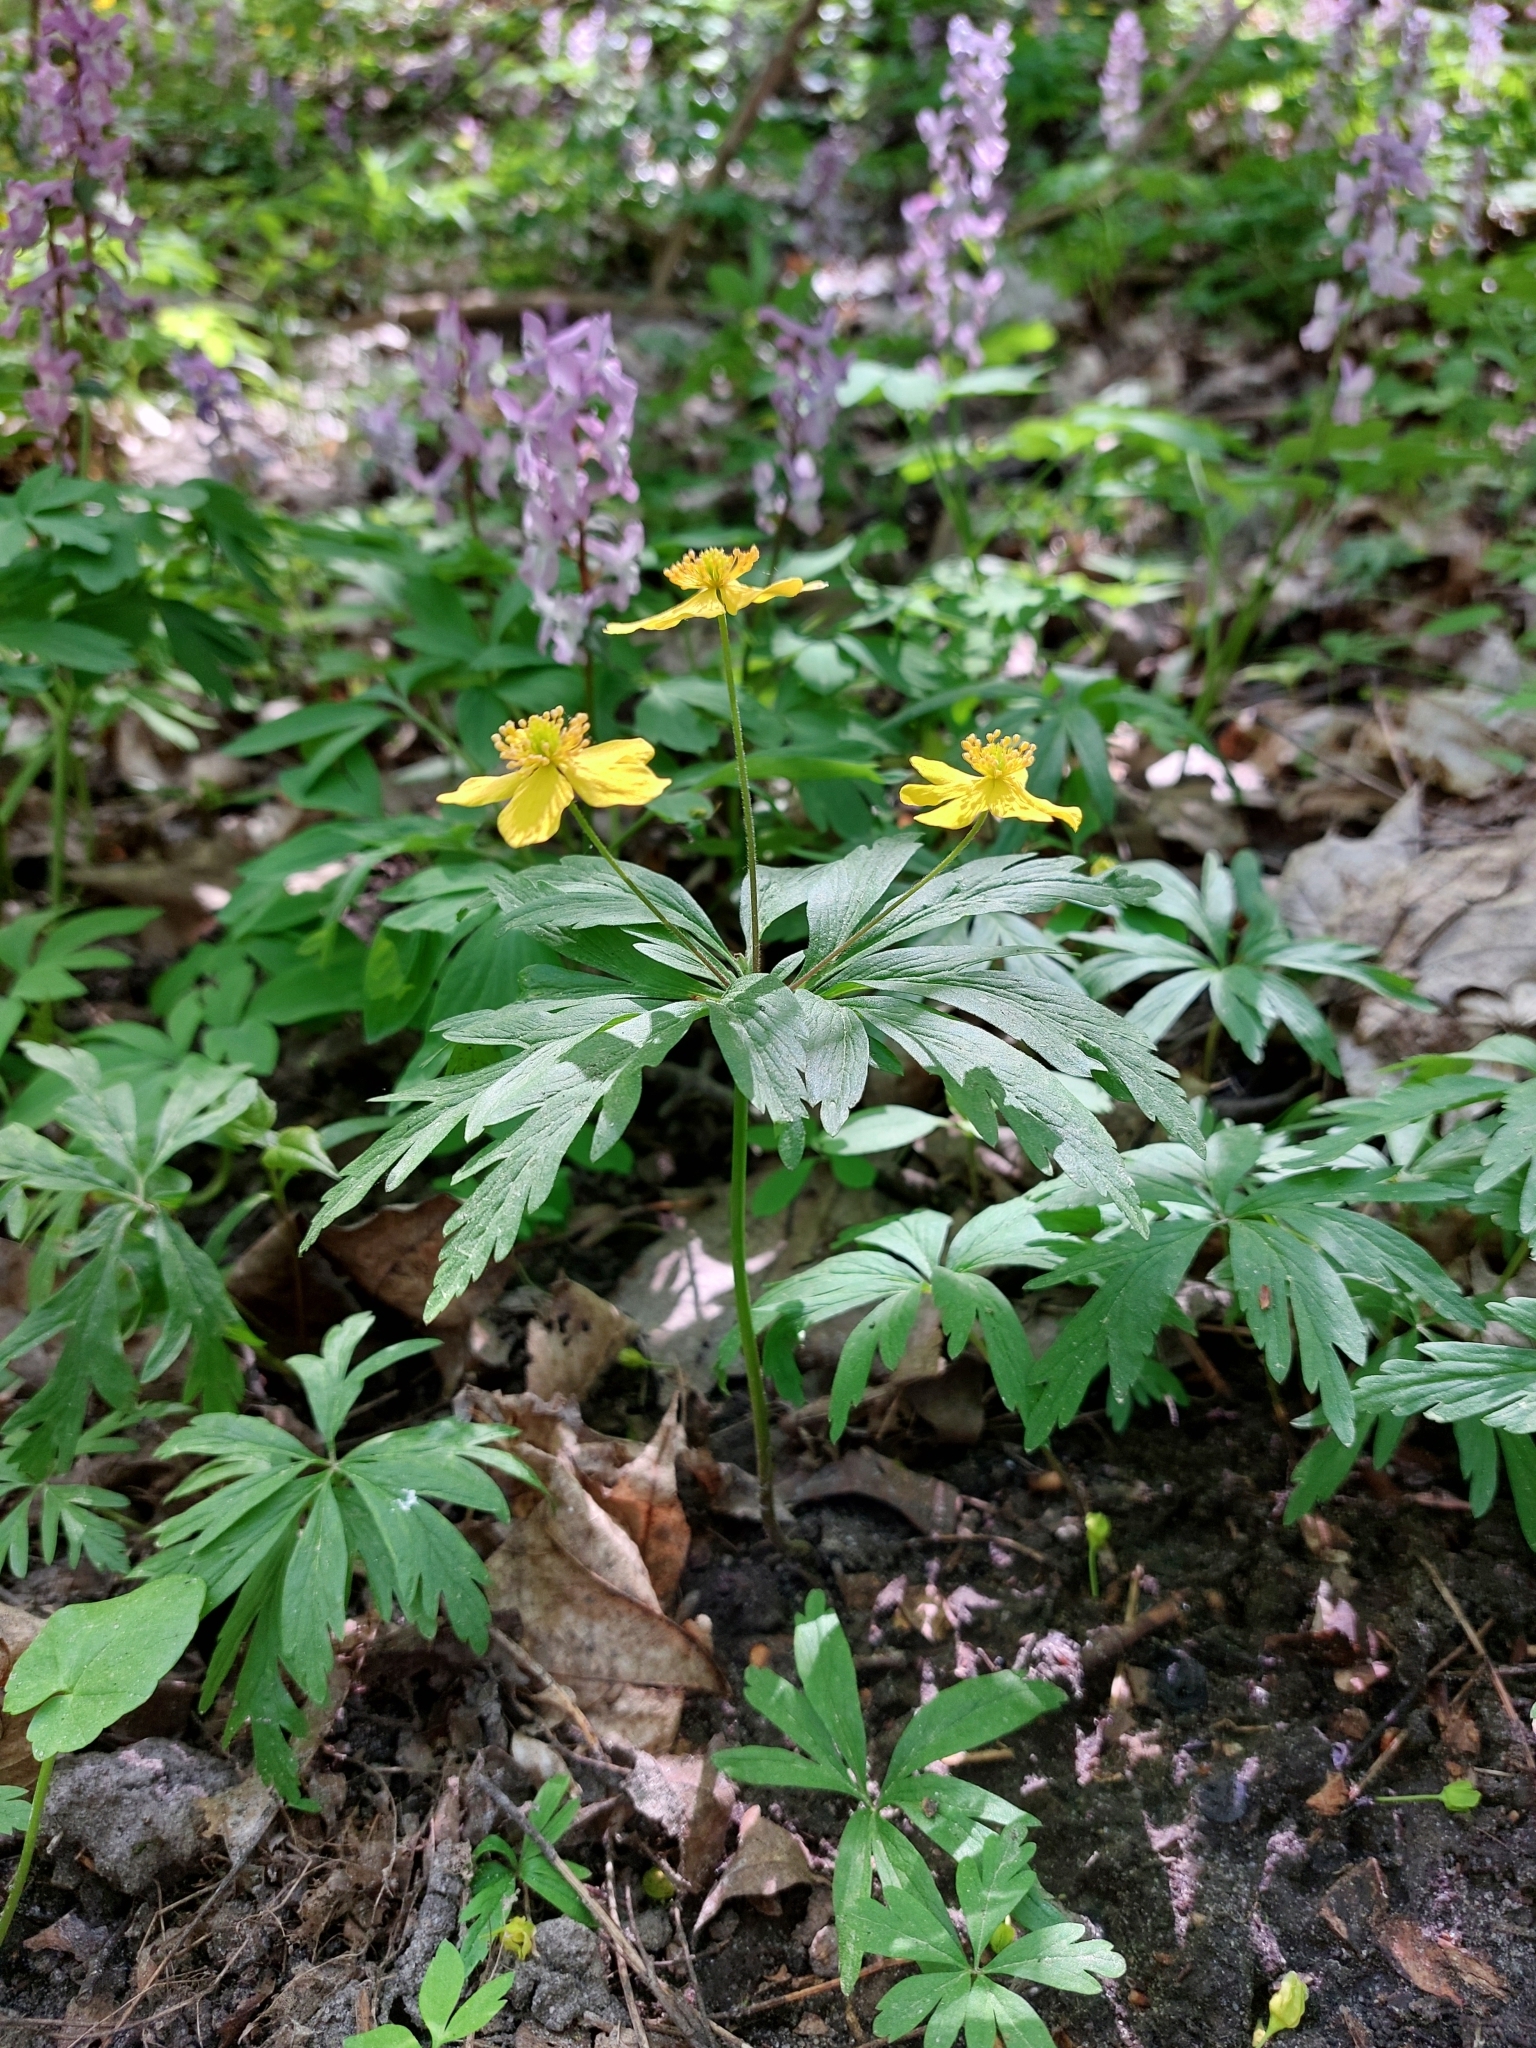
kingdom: Plantae
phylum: Tracheophyta
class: Magnoliopsida
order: Ranunculales
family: Ranunculaceae
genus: Anemone
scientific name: Anemone ranunculoides
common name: Yellow anemone
